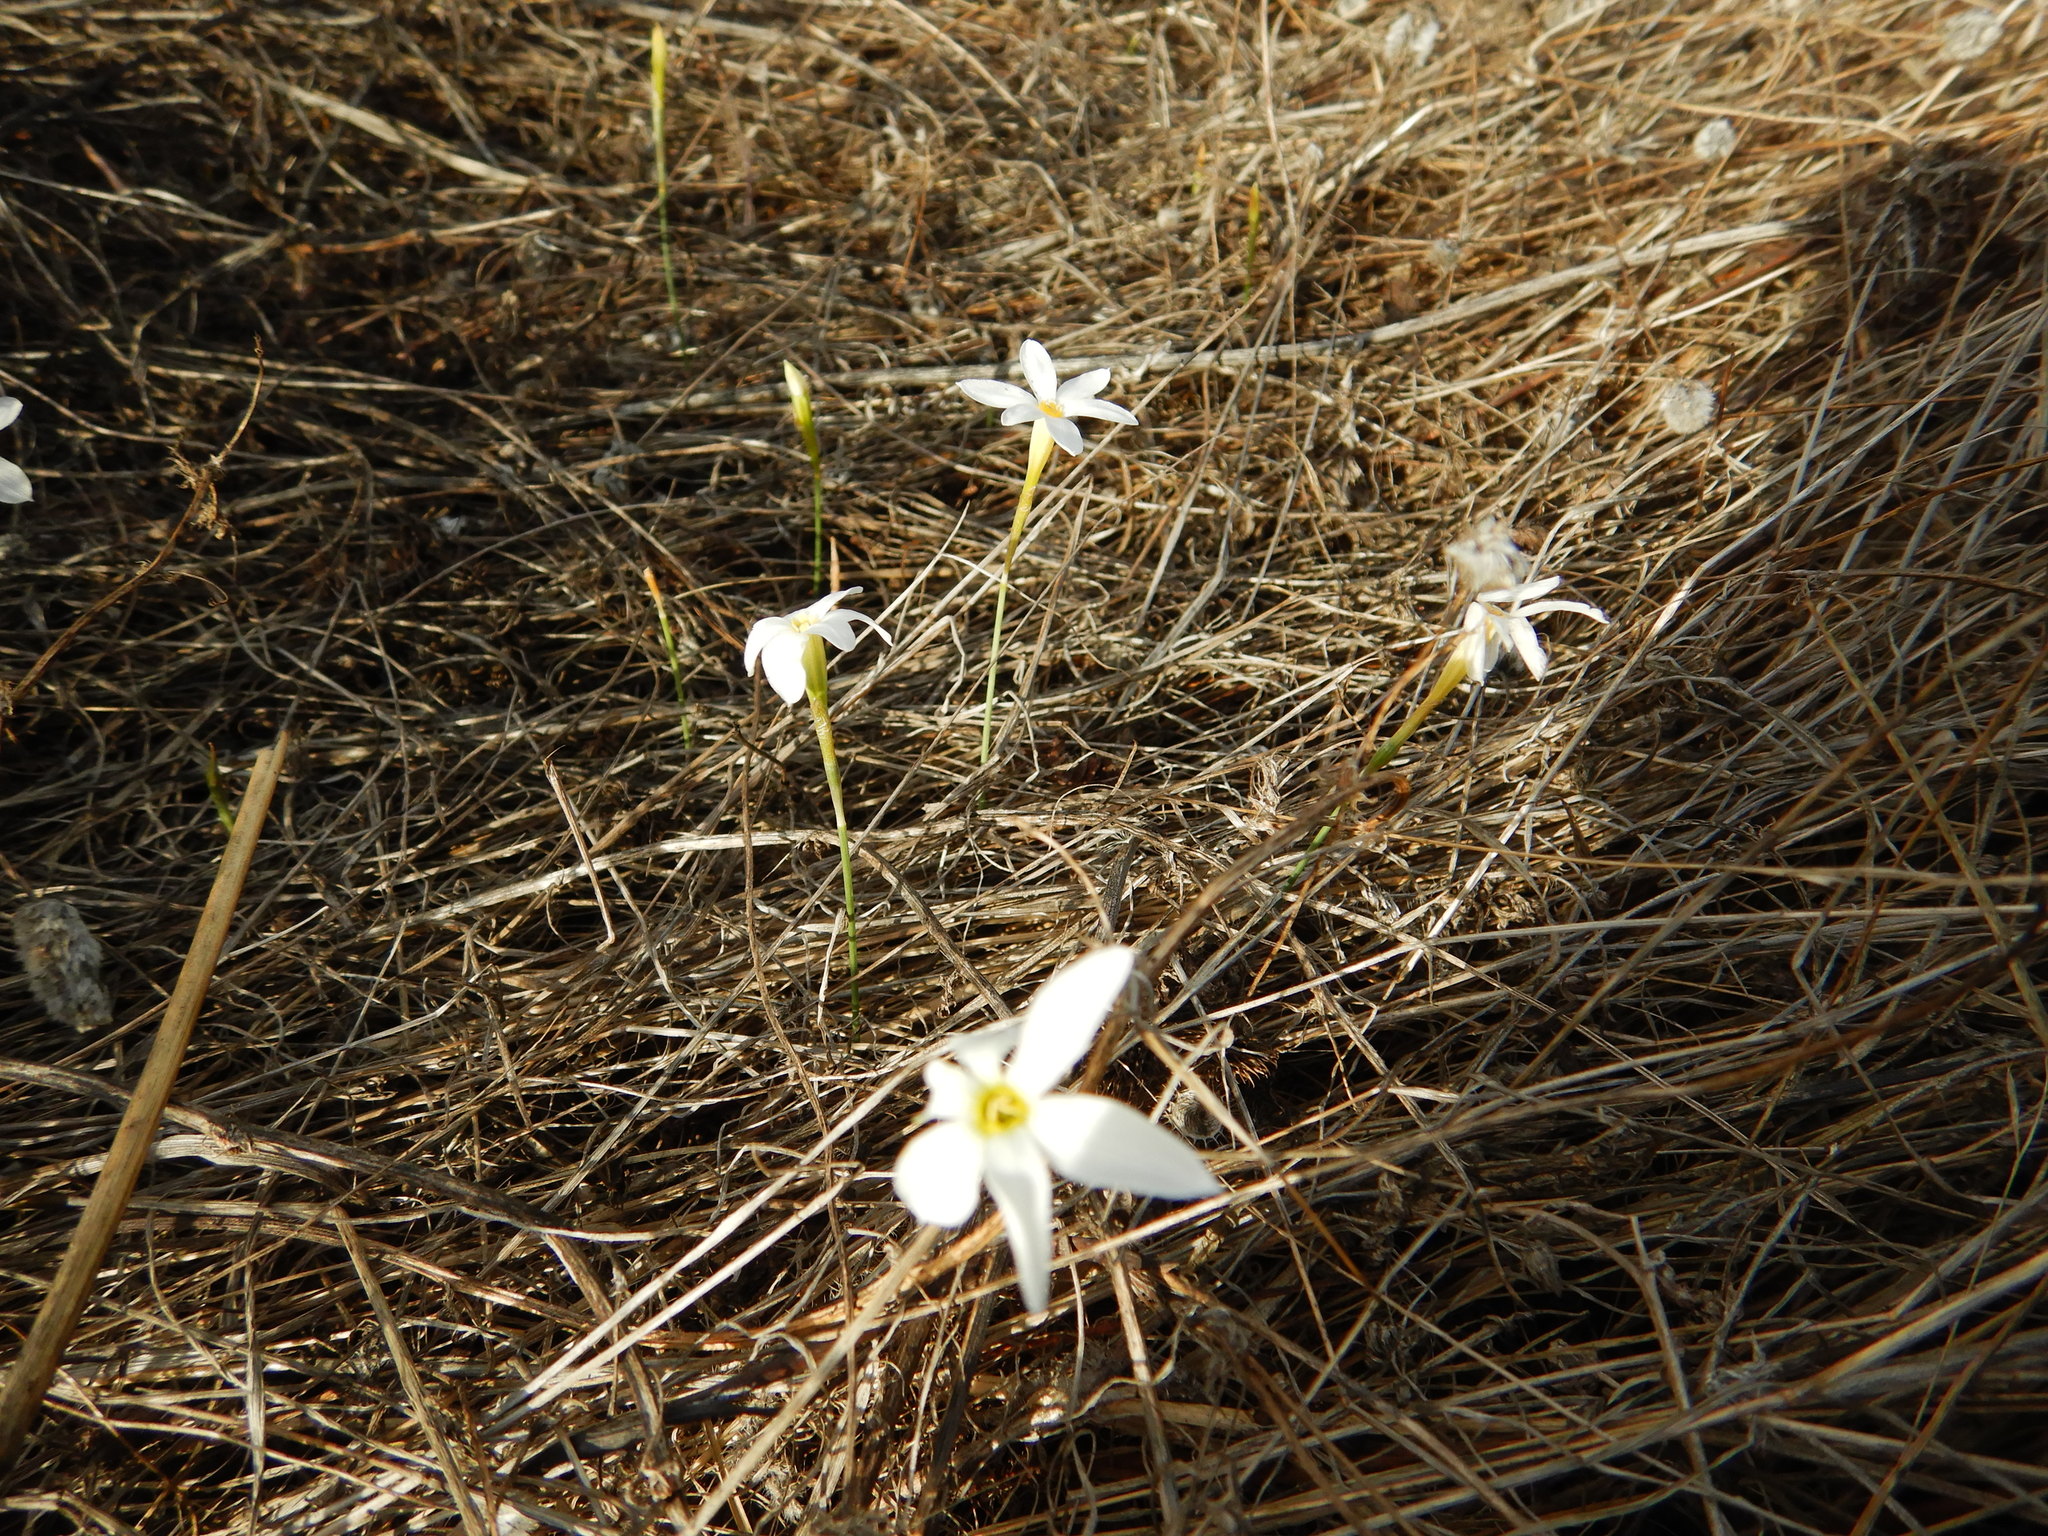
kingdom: Plantae
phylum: Tracheophyta
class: Liliopsida
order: Asparagales
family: Amaryllidaceae
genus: Narcissus
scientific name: Narcissus serotinus
